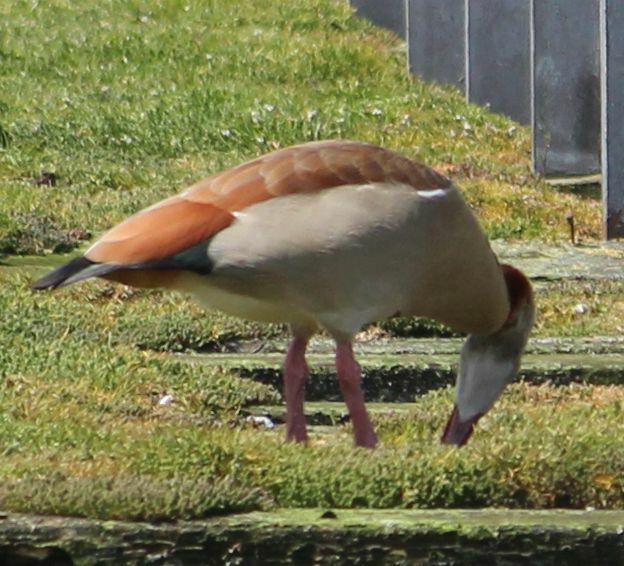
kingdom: Animalia
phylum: Chordata
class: Aves
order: Anseriformes
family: Anatidae
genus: Alopochen
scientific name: Alopochen aegyptiaca
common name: Egyptian goose
